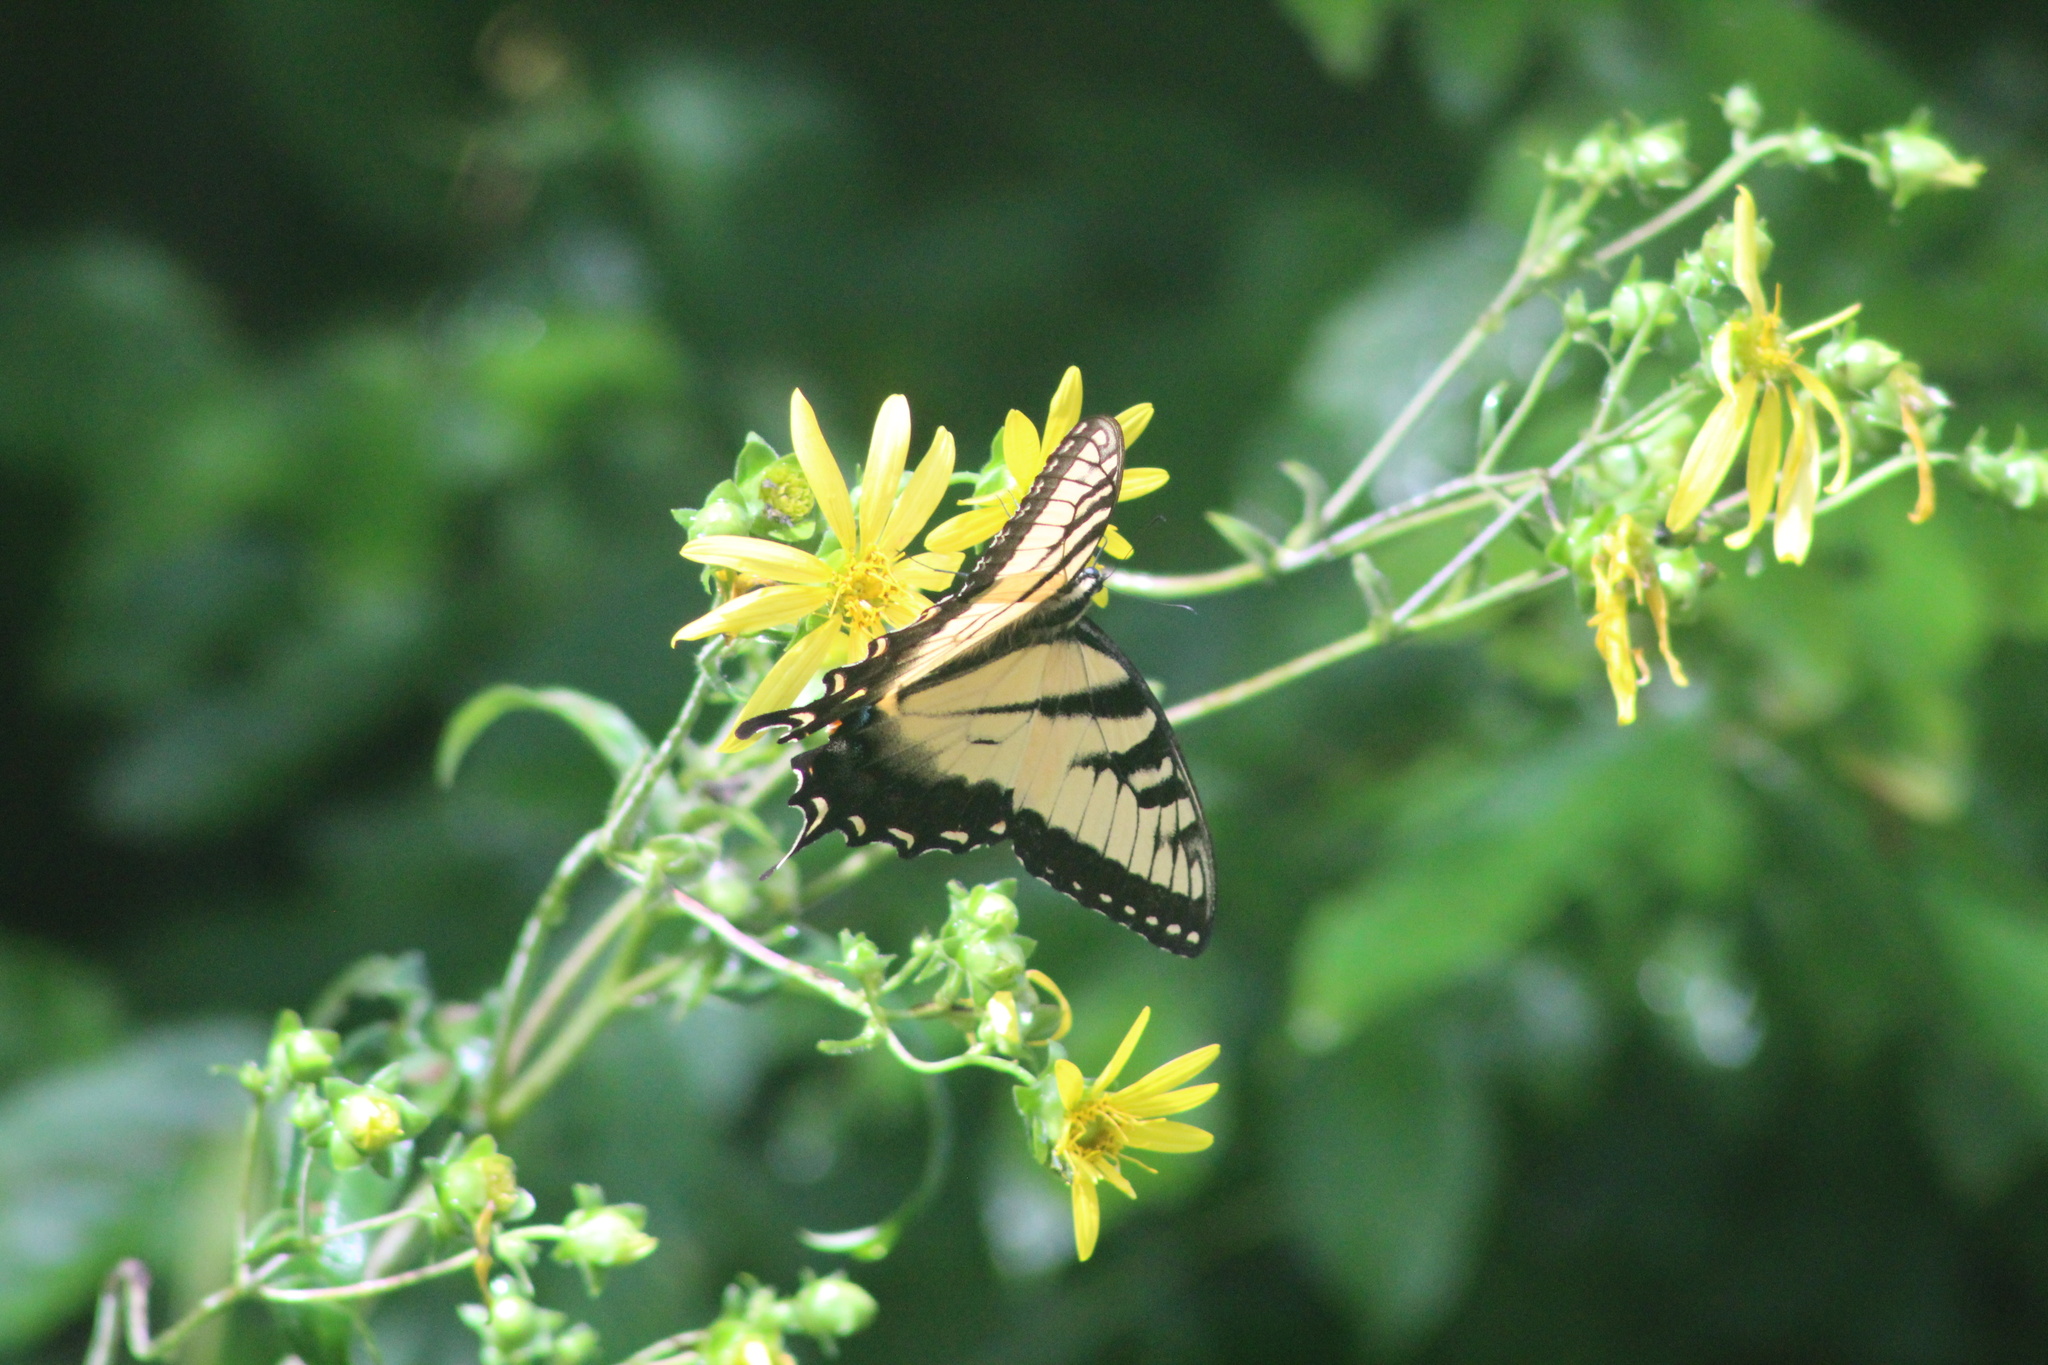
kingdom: Animalia
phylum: Arthropoda
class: Insecta
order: Lepidoptera
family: Papilionidae
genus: Papilio
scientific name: Papilio glaucus
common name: Tiger swallowtail
